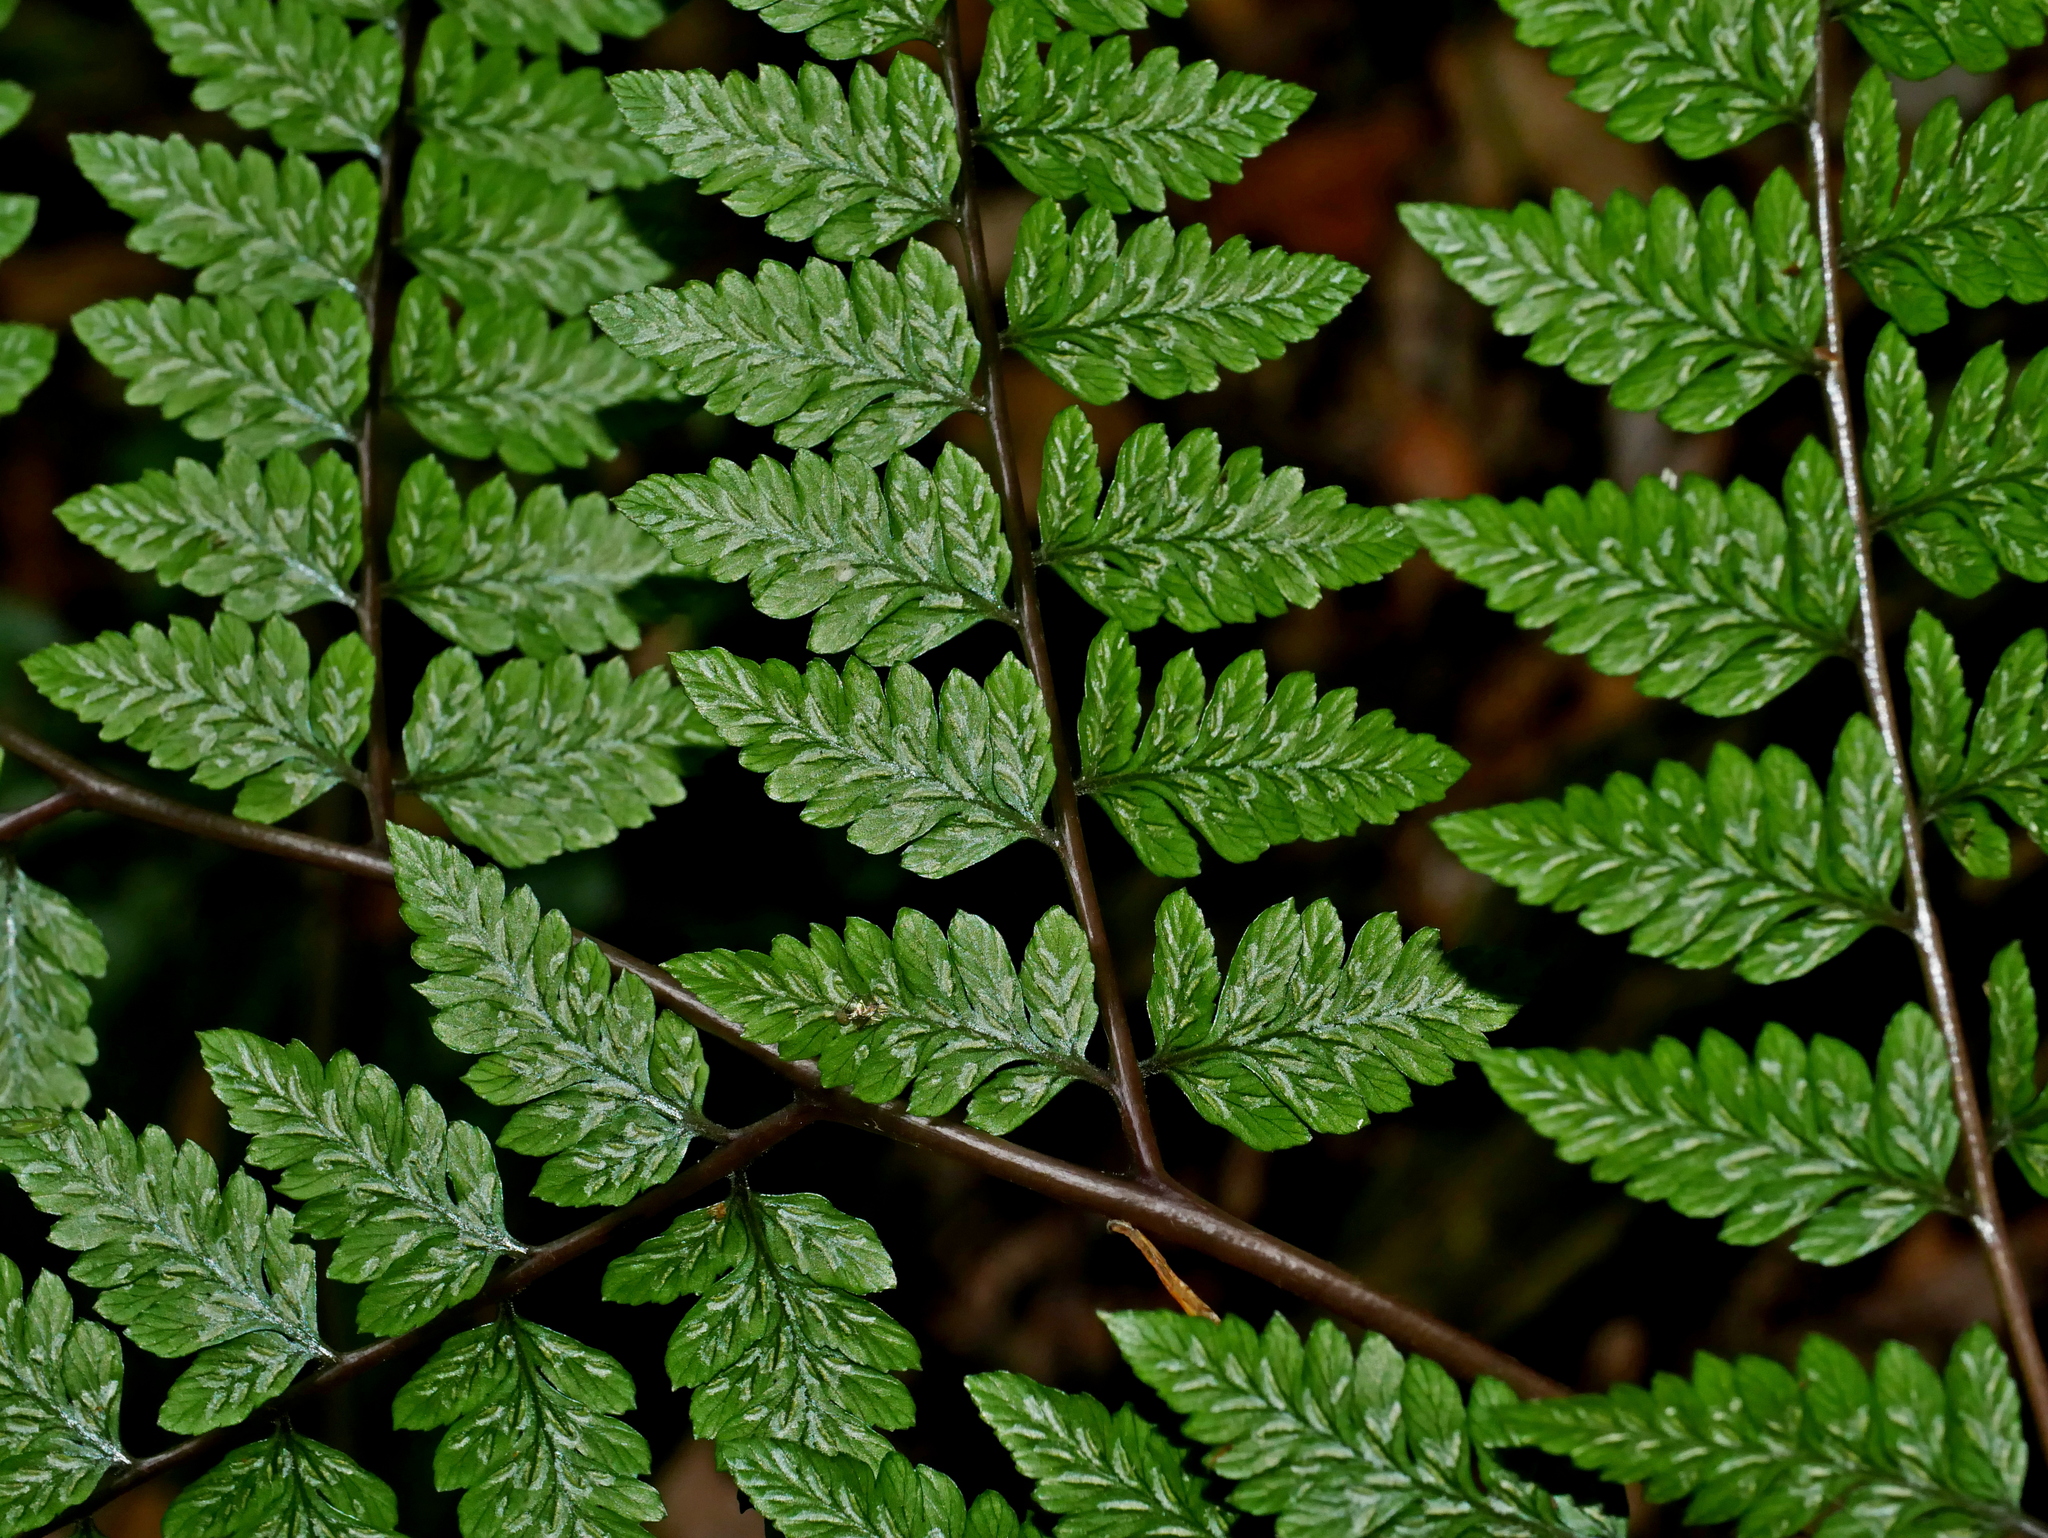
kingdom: Plantae
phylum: Tracheophyta
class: Polypodiopsida
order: Polypodiales
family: Athyriaceae
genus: Athyrium
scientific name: Athyrium erythropodum
